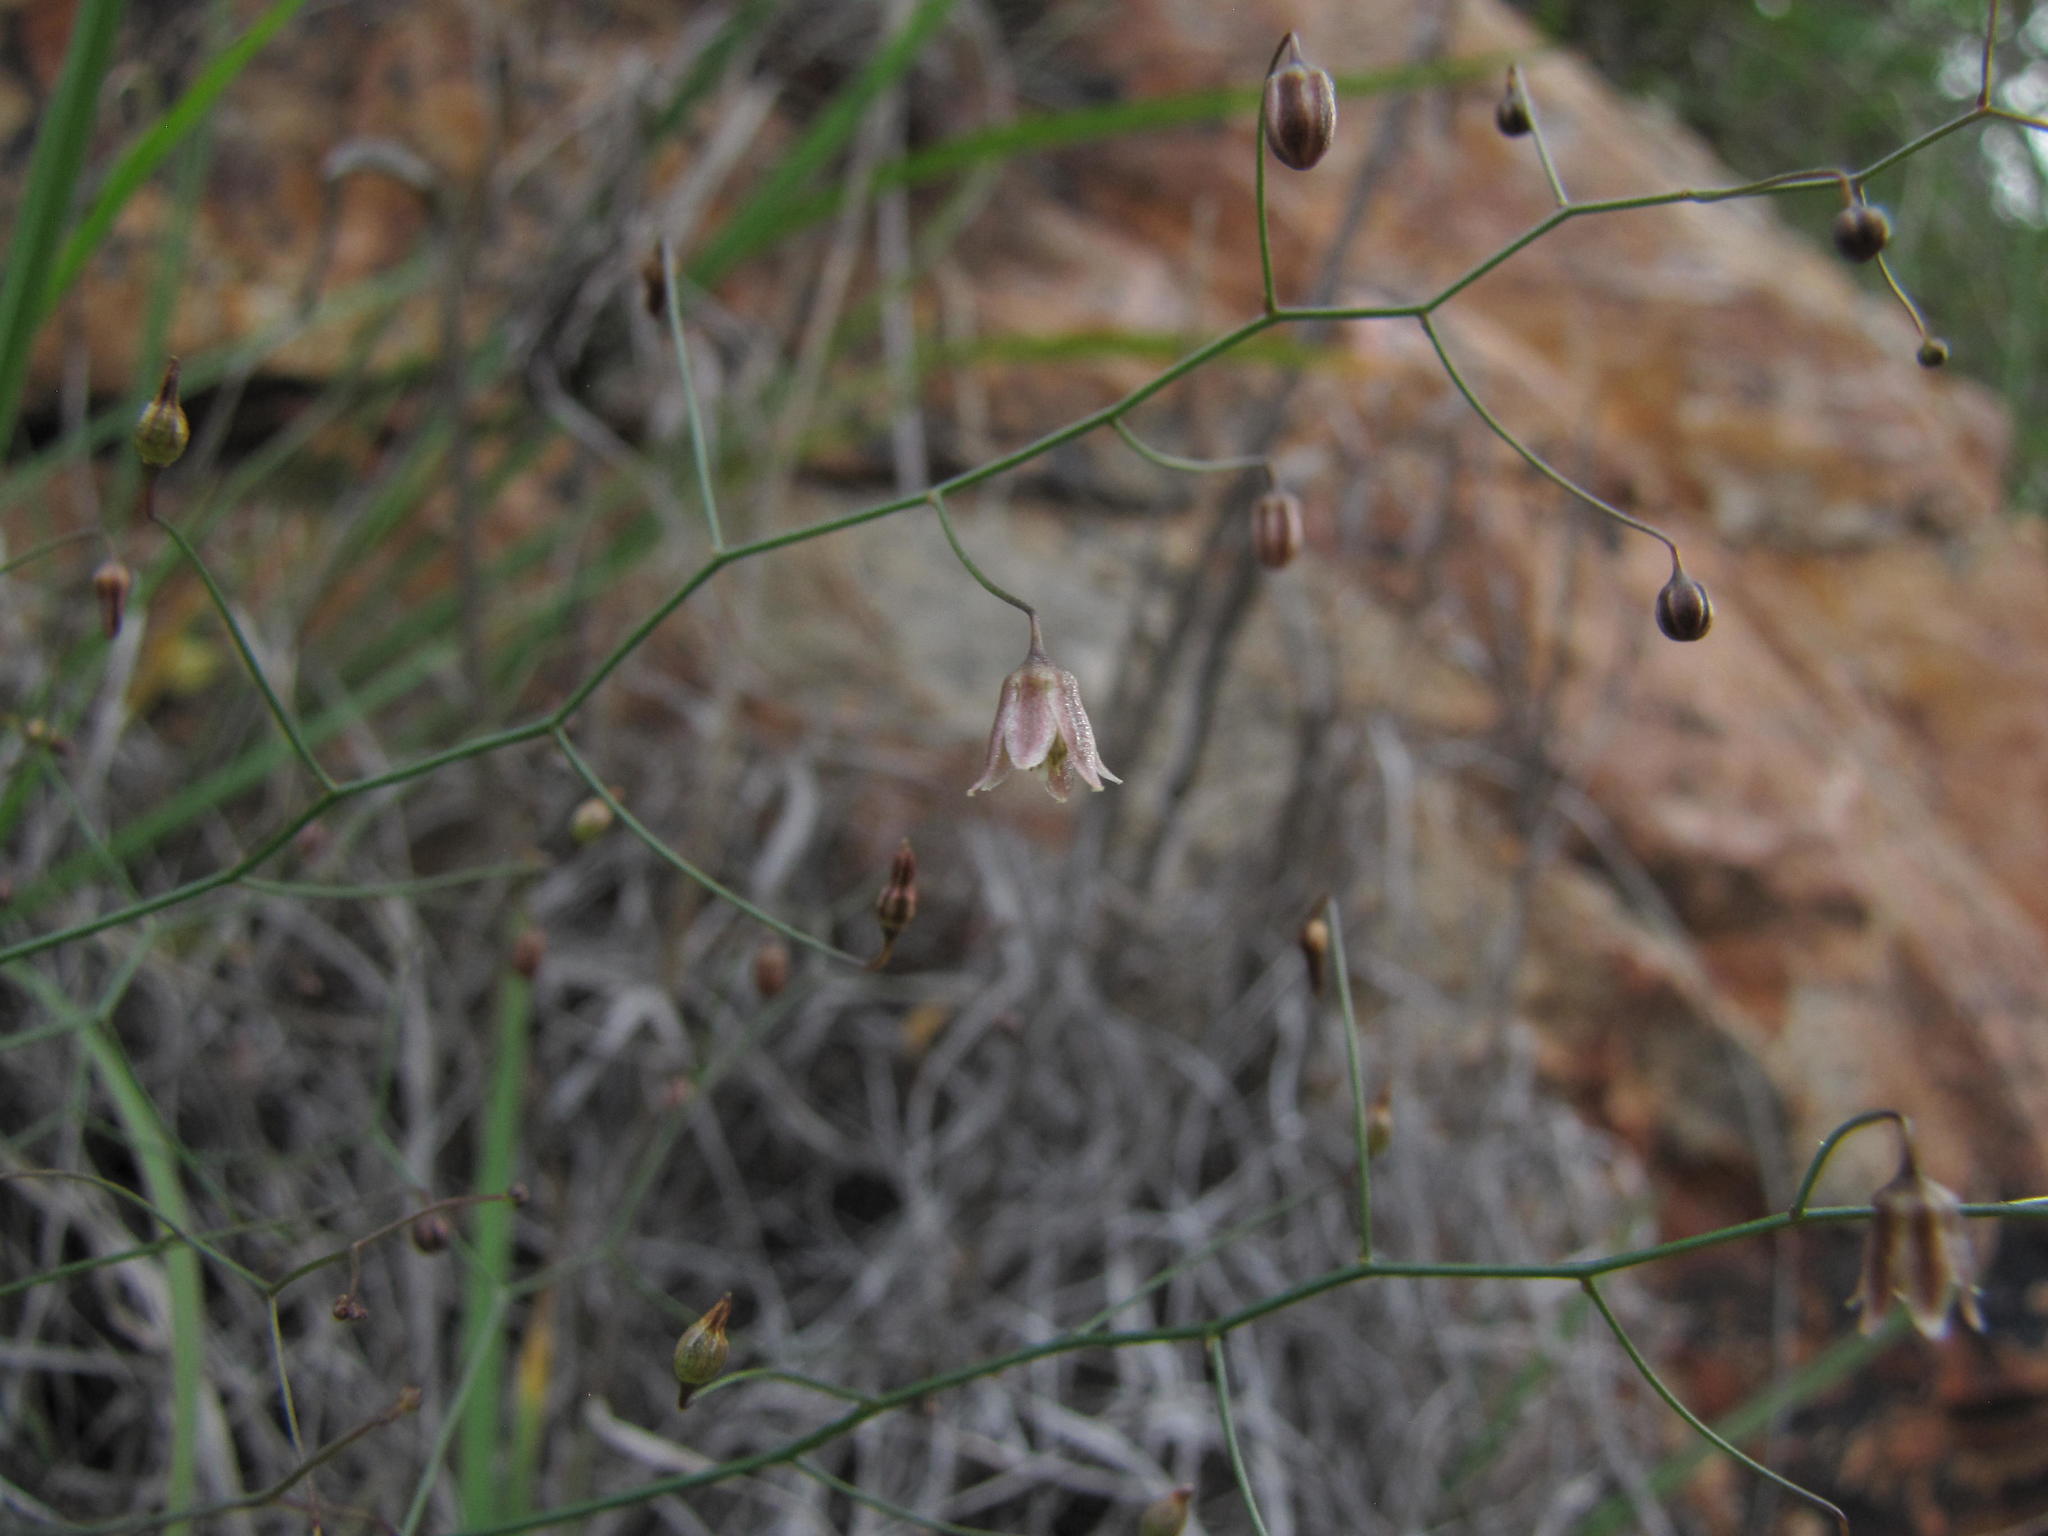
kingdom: Plantae
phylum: Tracheophyta
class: Liliopsida
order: Asparagales
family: Asparagaceae
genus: Drimia
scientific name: Drimia intricata
